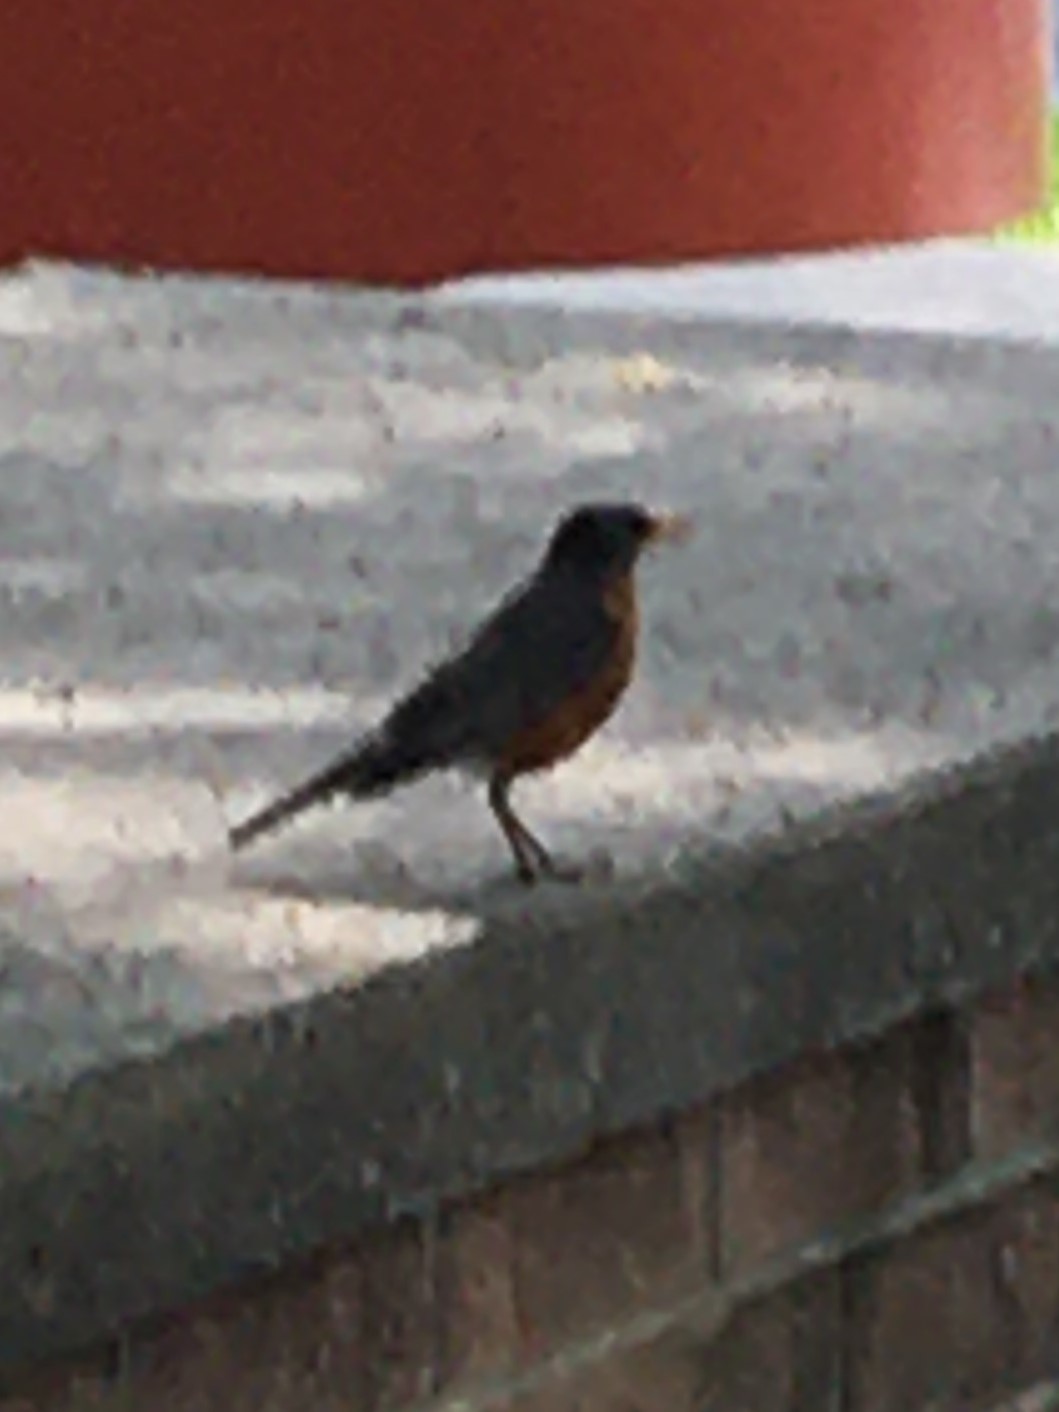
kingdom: Animalia
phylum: Chordata
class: Aves
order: Passeriformes
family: Turdidae
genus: Turdus
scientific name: Turdus migratorius
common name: American robin
